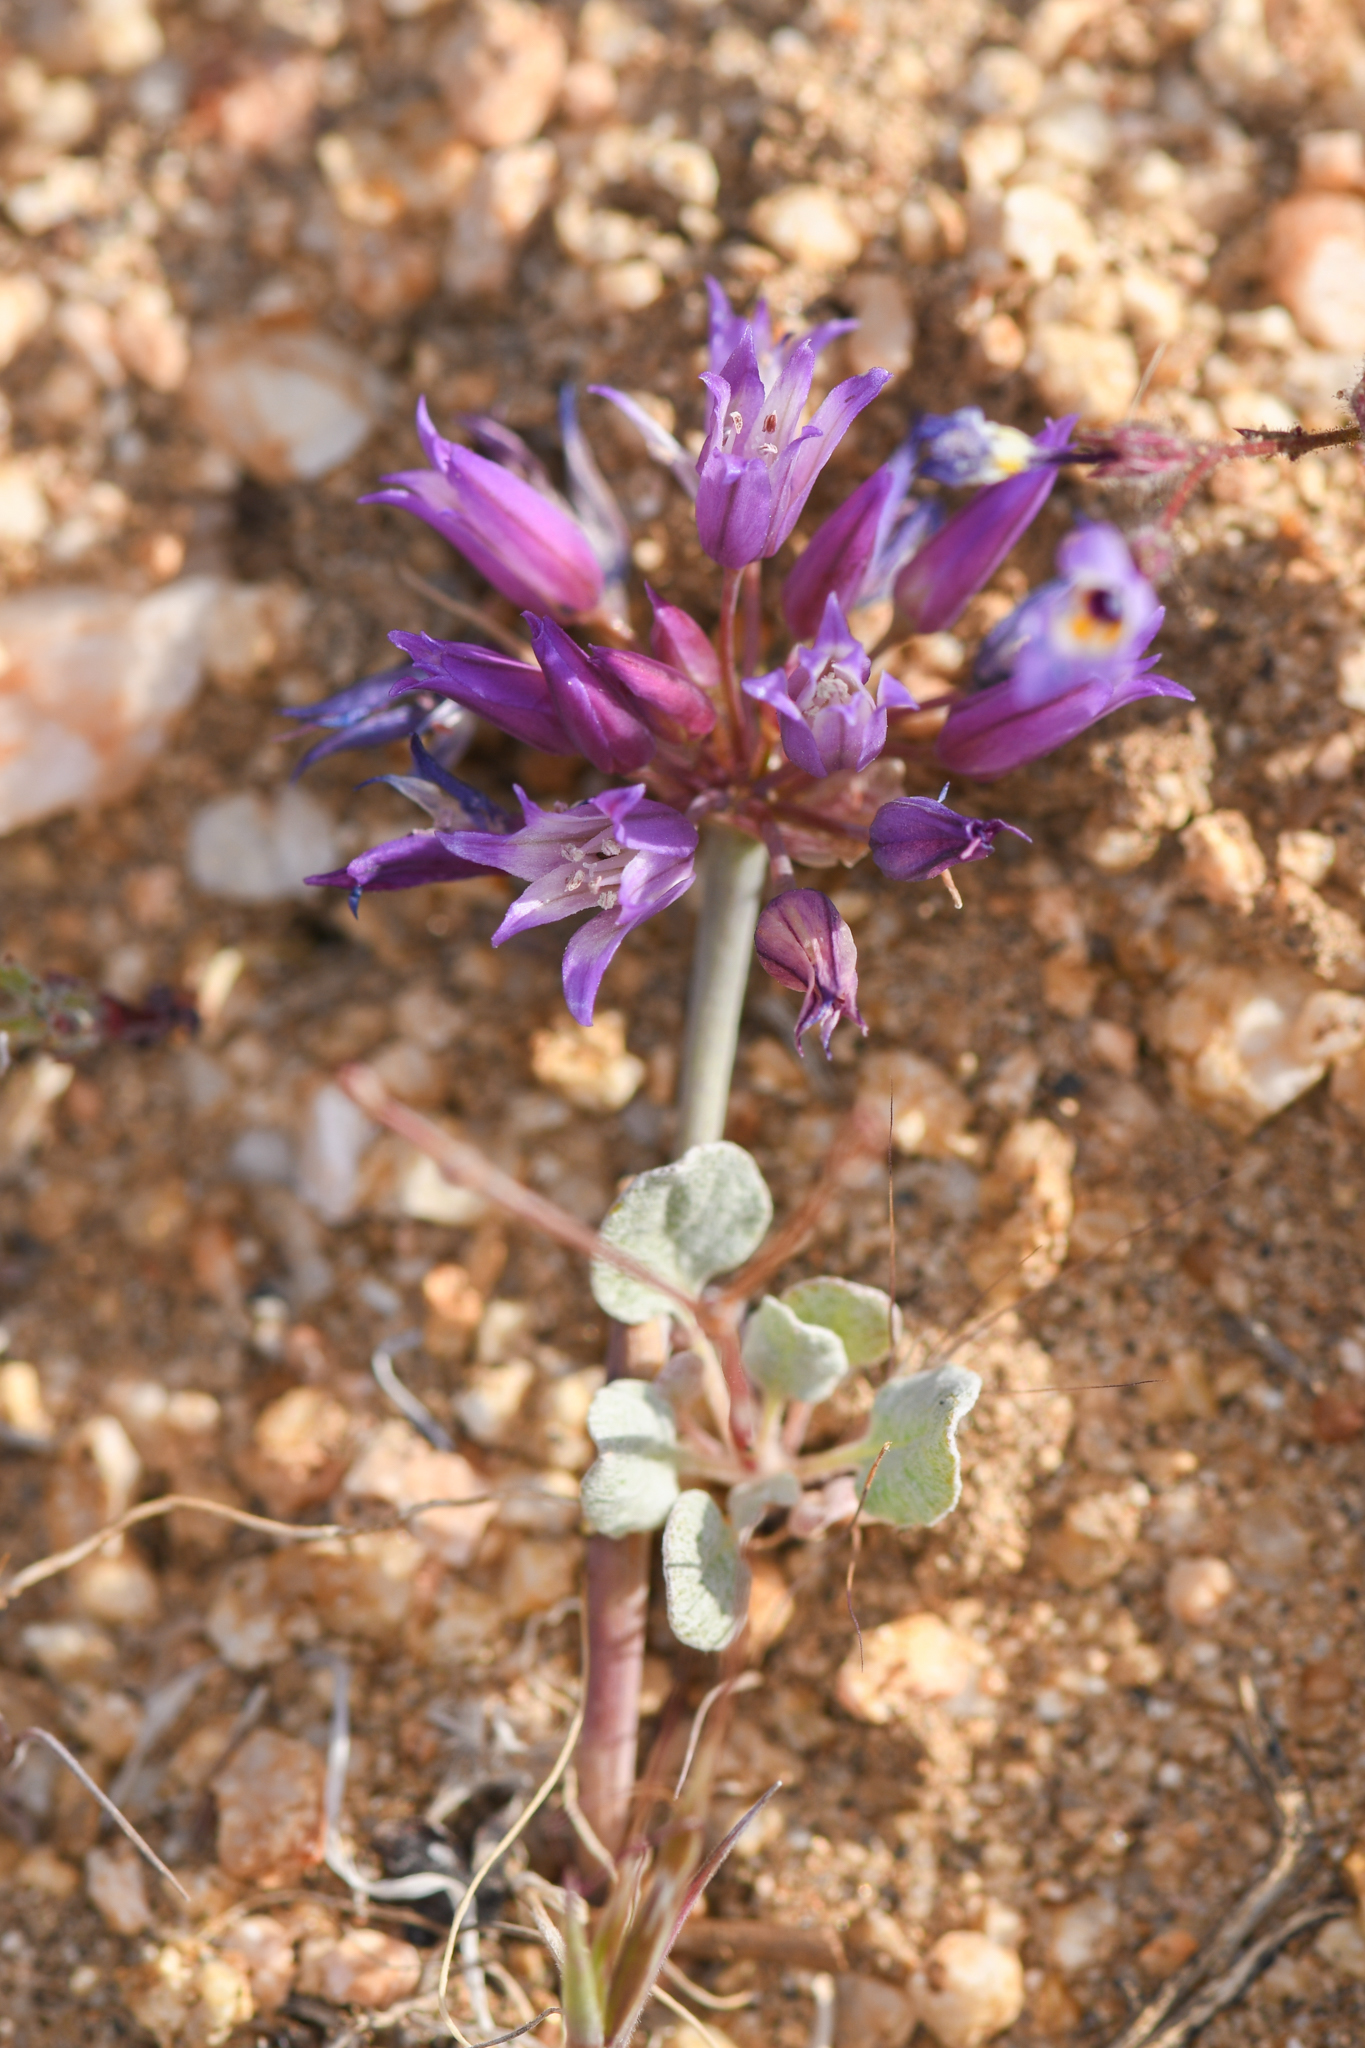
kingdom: Plantae
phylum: Tracheophyta
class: Liliopsida
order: Asparagales
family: Amaryllidaceae
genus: Allium
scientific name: Allium fimbriatum
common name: Fringed onion
